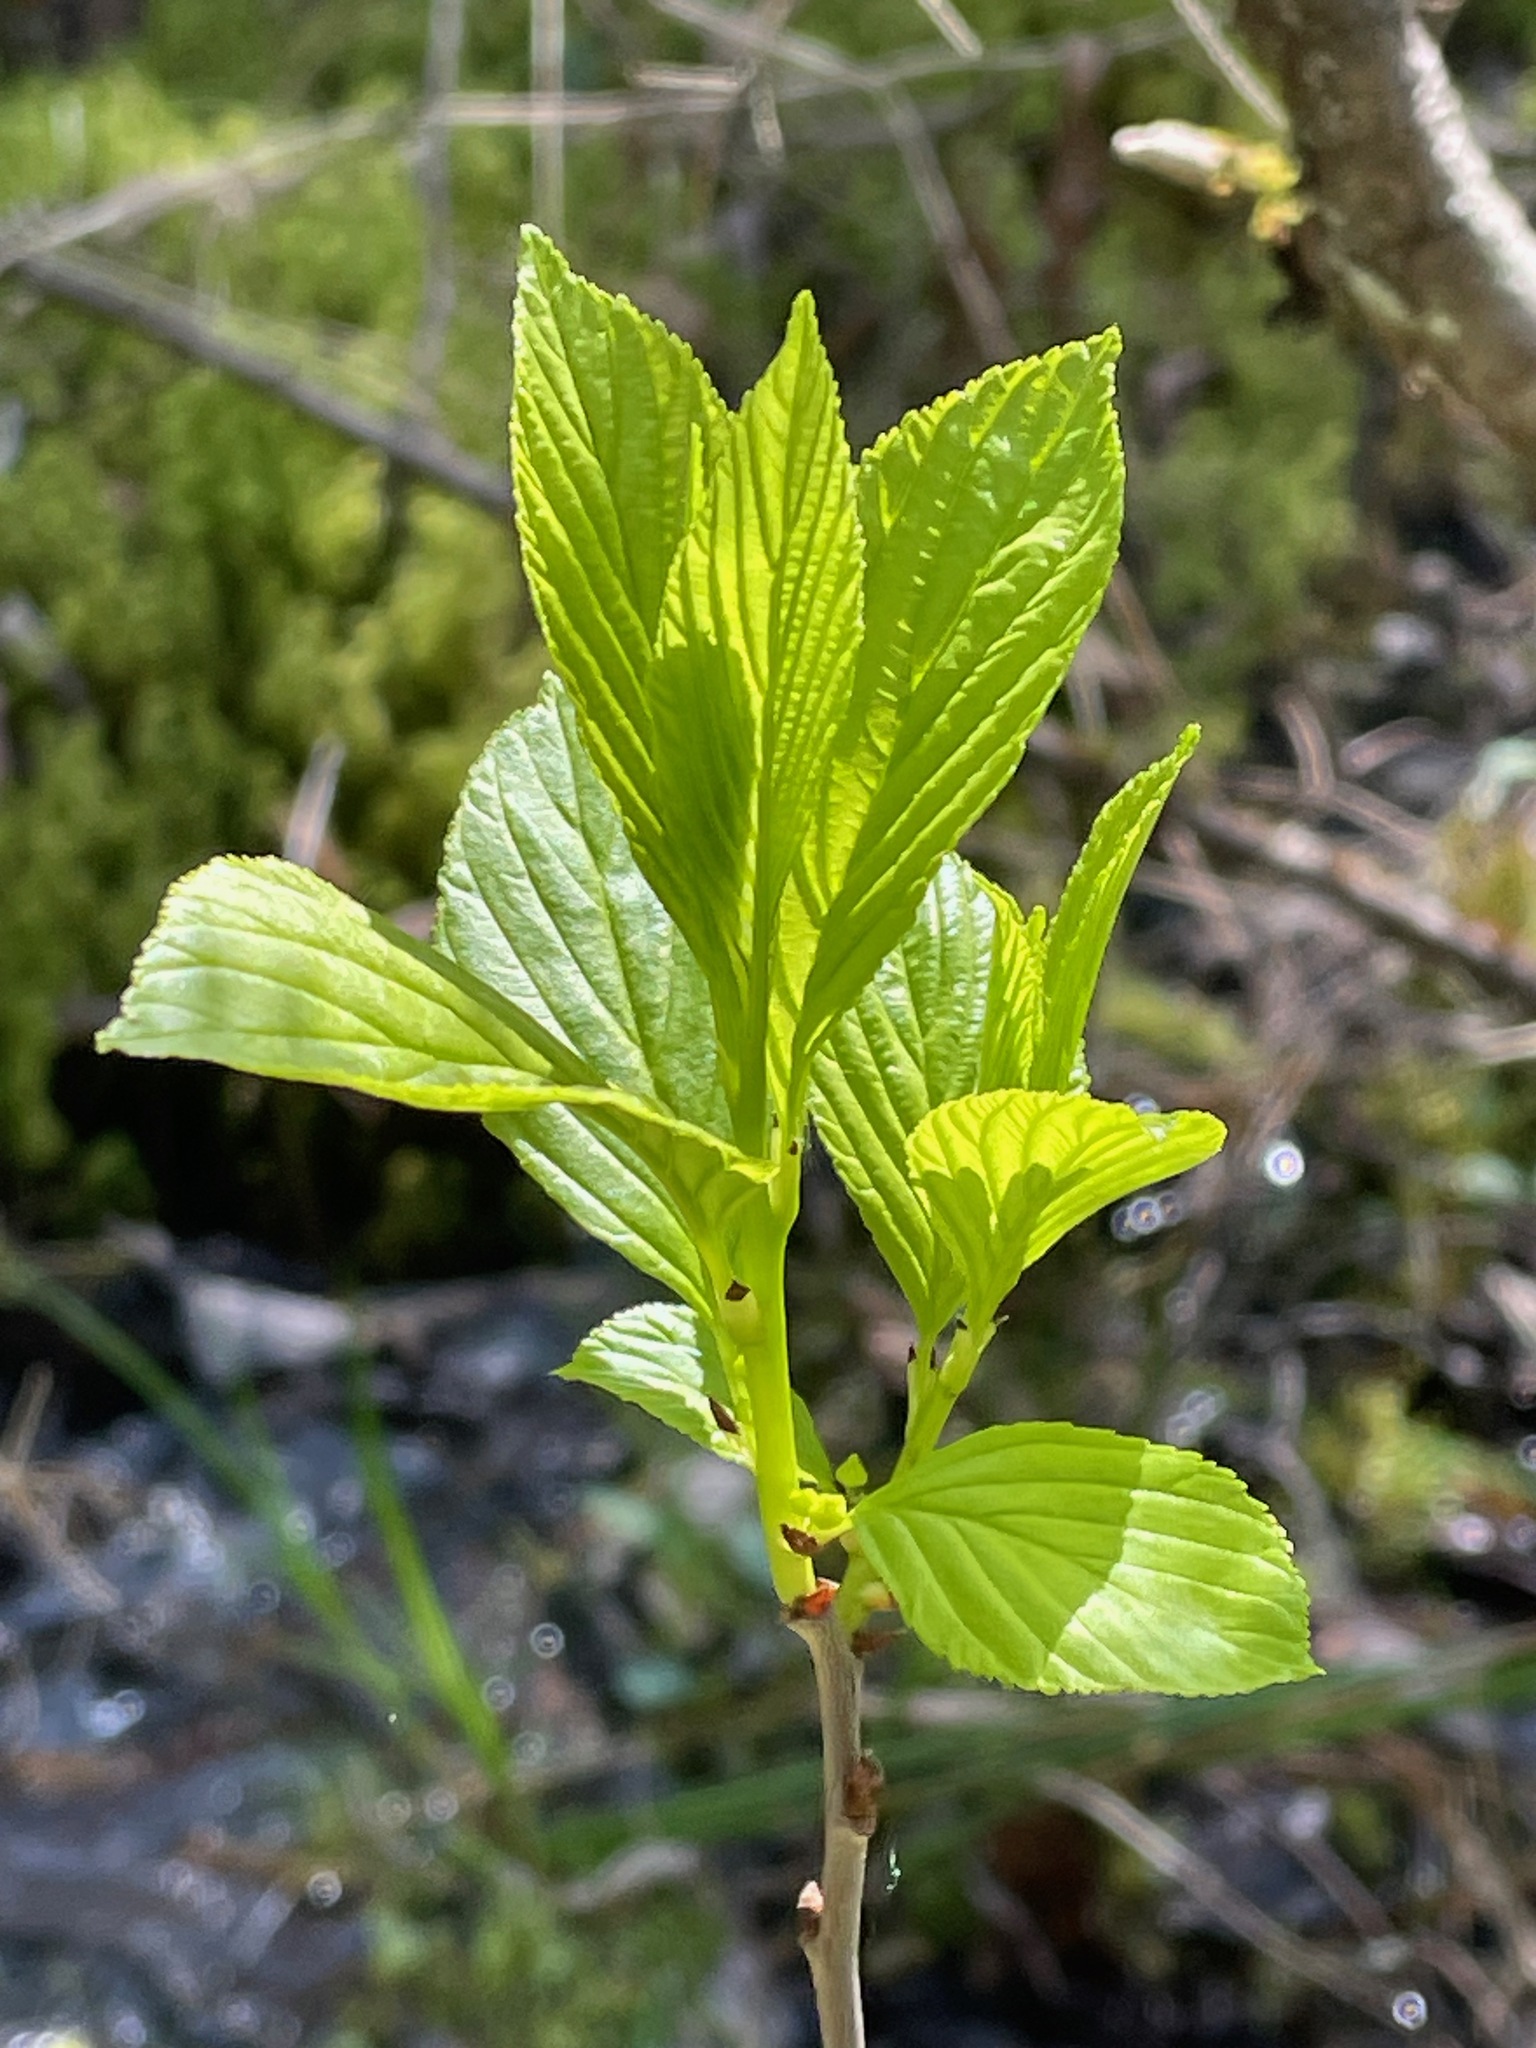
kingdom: Plantae
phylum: Tracheophyta
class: Magnoliopsida
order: Rosales
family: Rhamnaceae
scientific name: Rhamnaceae
